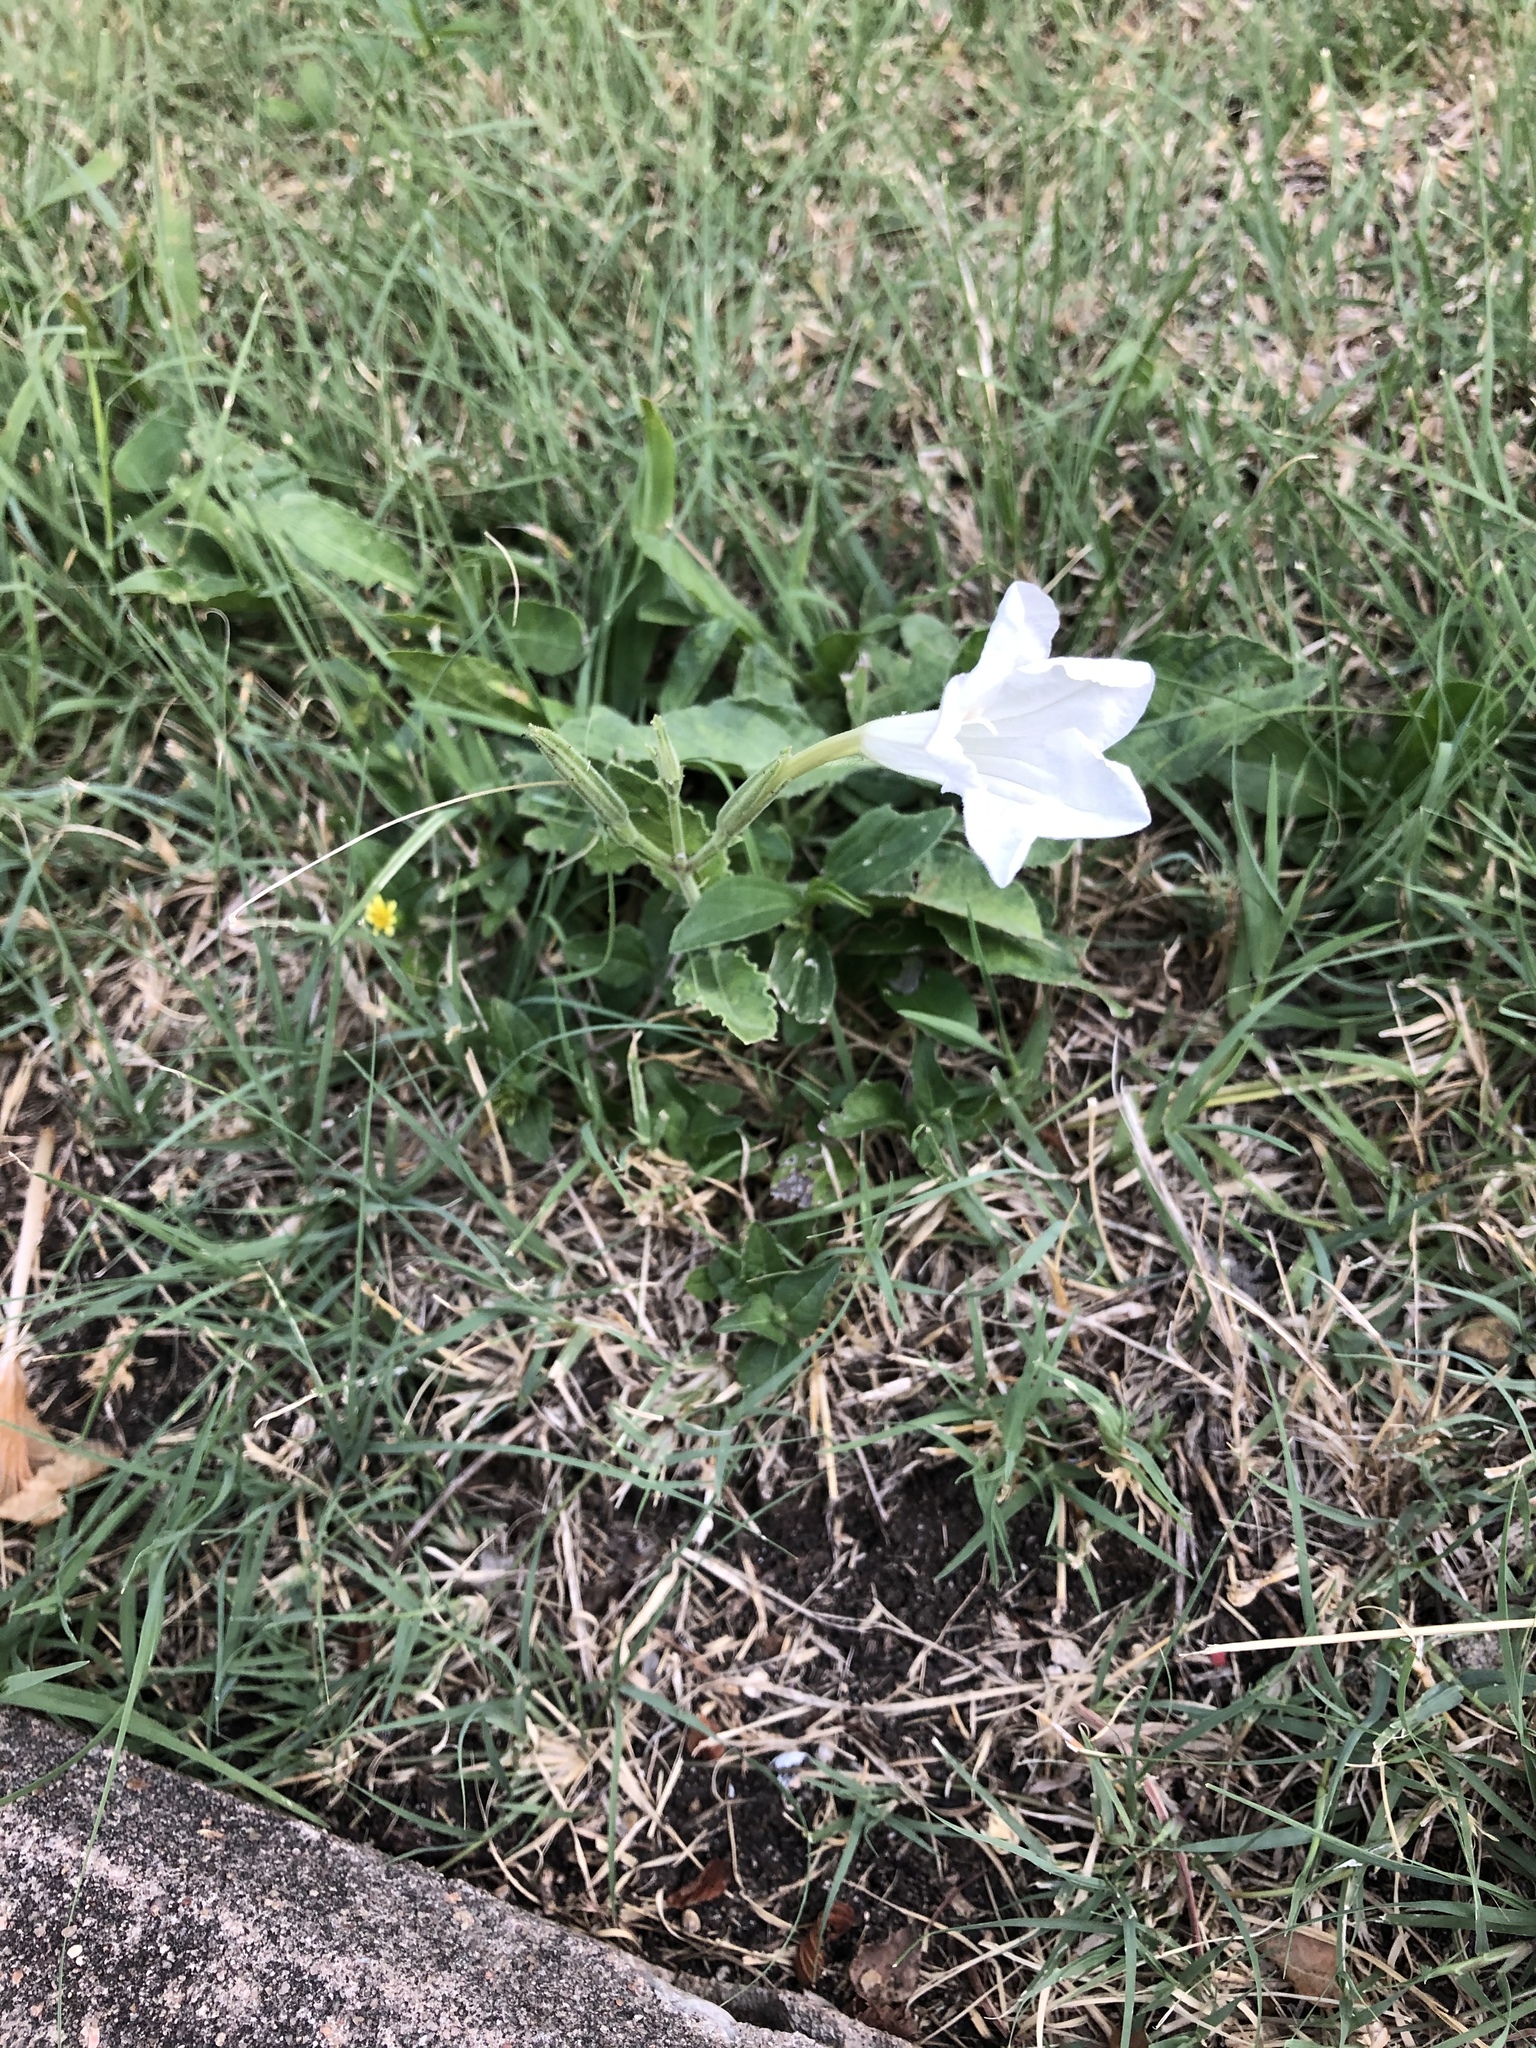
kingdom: Plantae
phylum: Tracheophyta
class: Magnoliopsida
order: Lamiales
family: Acanthaceae
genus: Ruellia
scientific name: Ruellia metziae
